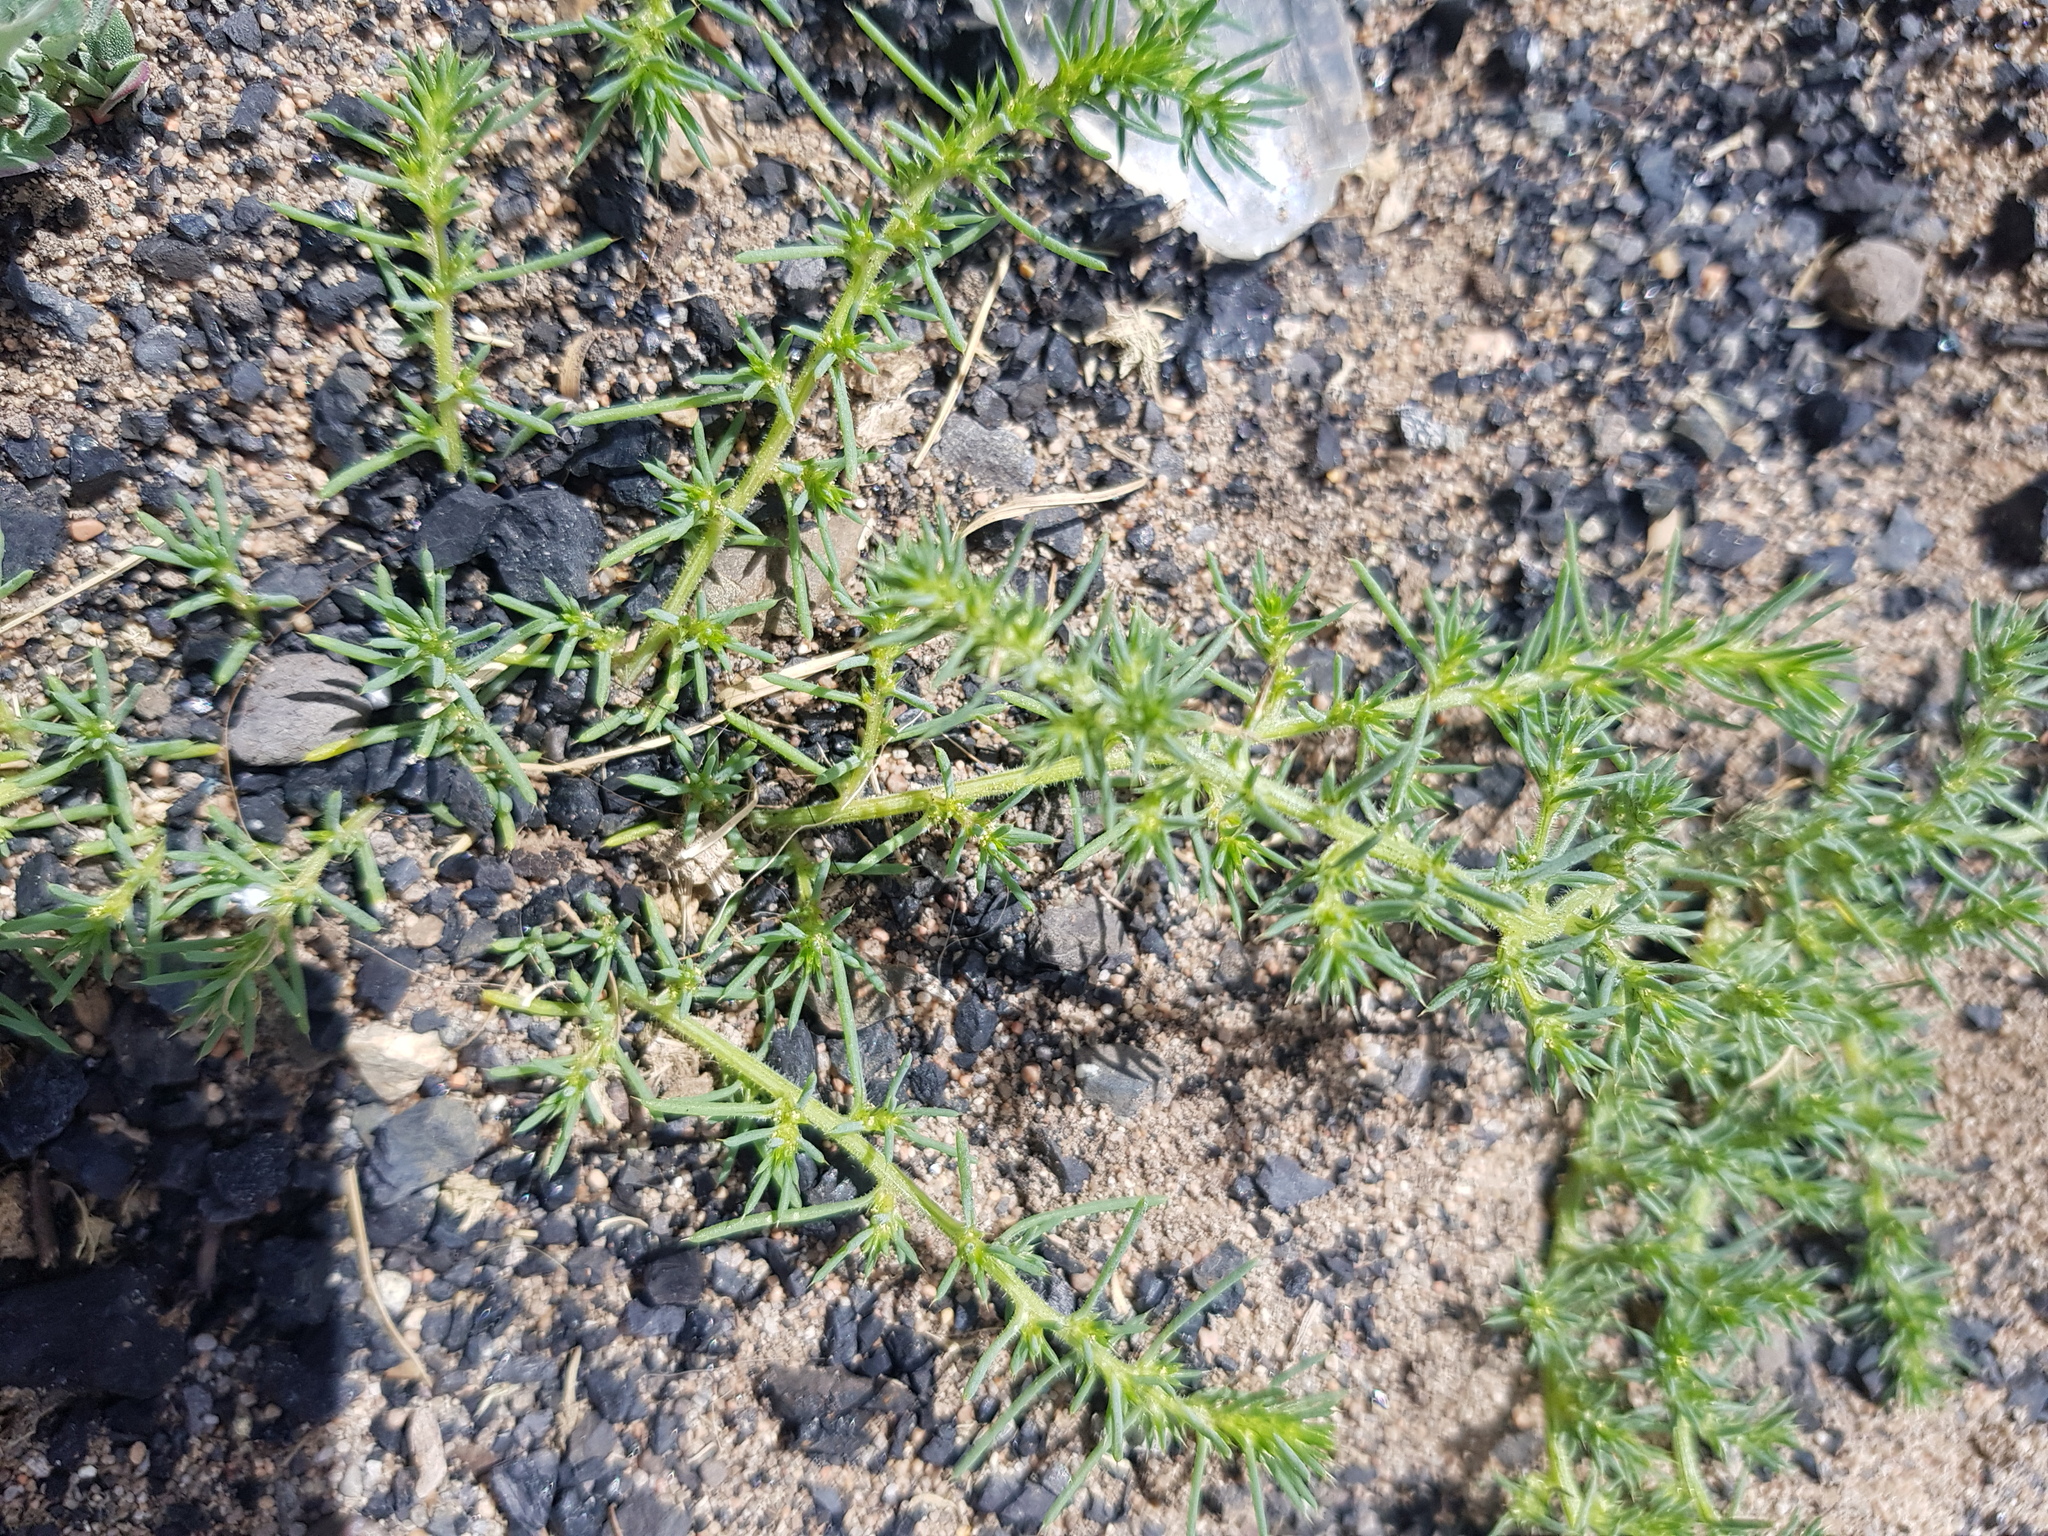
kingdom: Plantae
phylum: Tracheophyta
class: Magnoliopsida
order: Caryophyllales
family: Amaranthaceae
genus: Salsola
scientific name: Salsola tragus
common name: Prickly russian thistle
